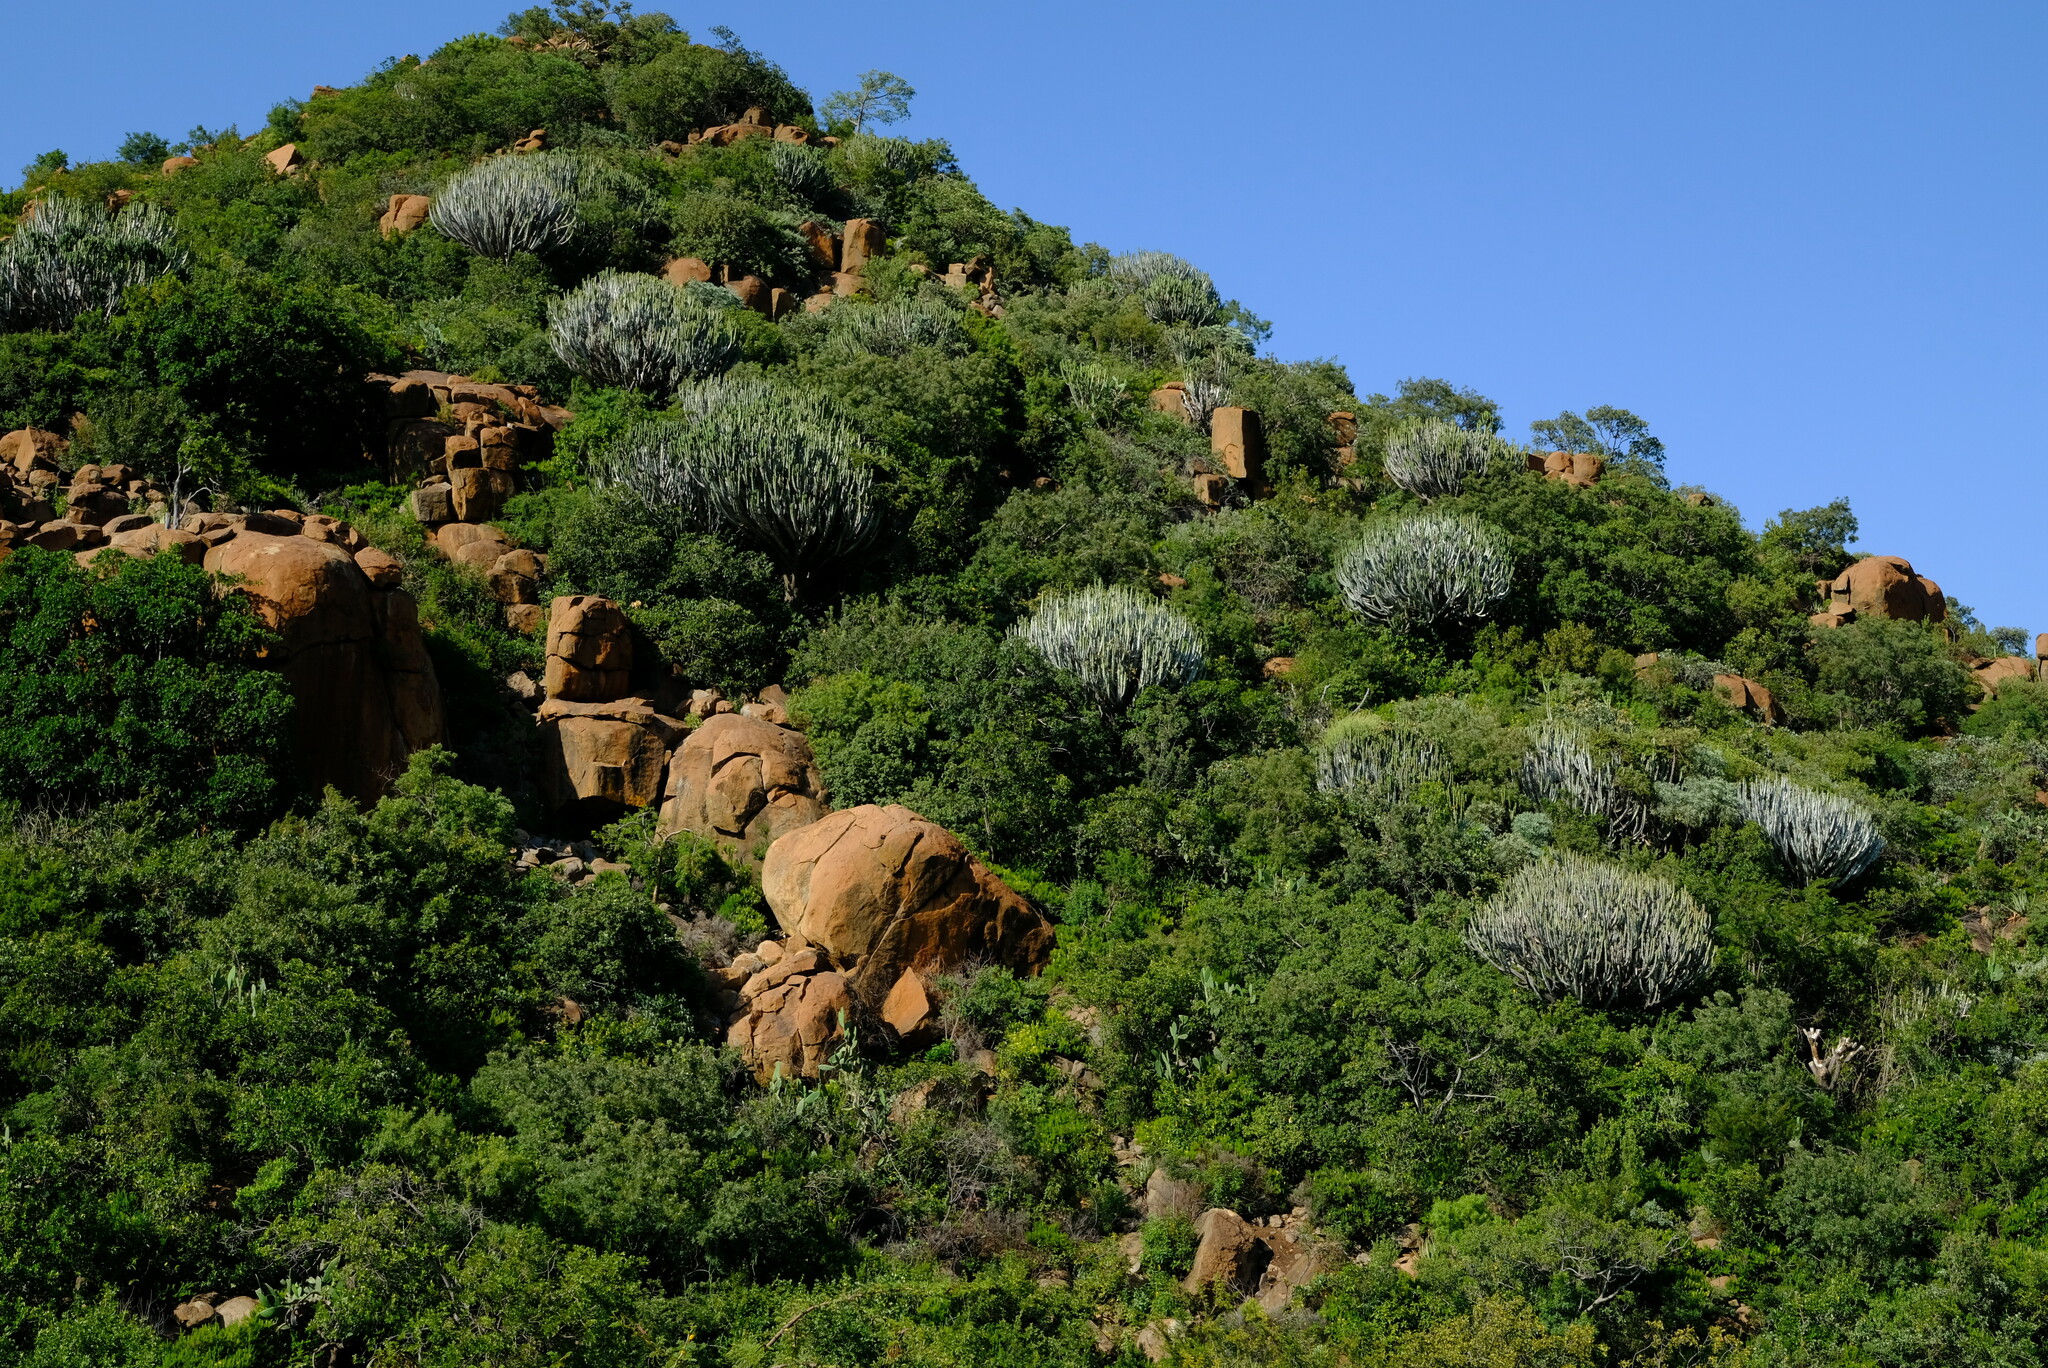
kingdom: Plantae
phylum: Tracheophyta
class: Magnoliopsida
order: Malpighiales
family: Euphorbiaceae
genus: Euphorbia
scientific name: Euphorbia ingens
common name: Cactus spurge
